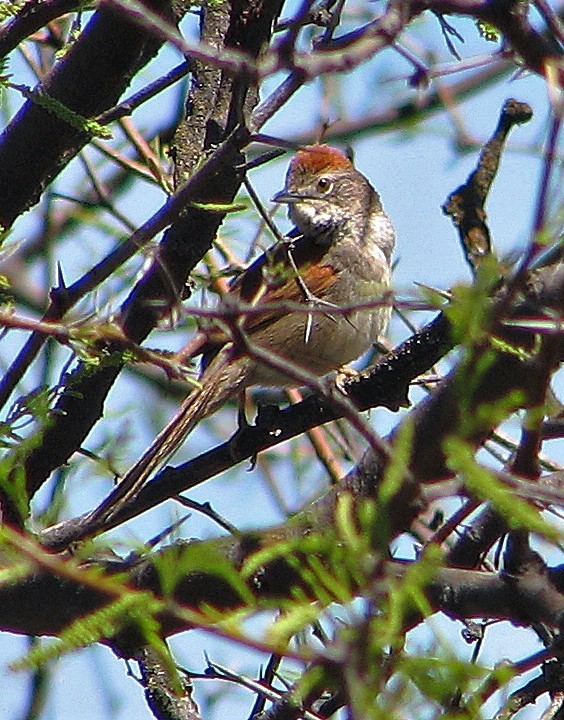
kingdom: Animalia
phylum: Chordata
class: Aves
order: Passeriformes
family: Furnariidae
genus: Synallaxis
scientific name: Synallaxis albescens
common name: Pale-breasted spinetail
